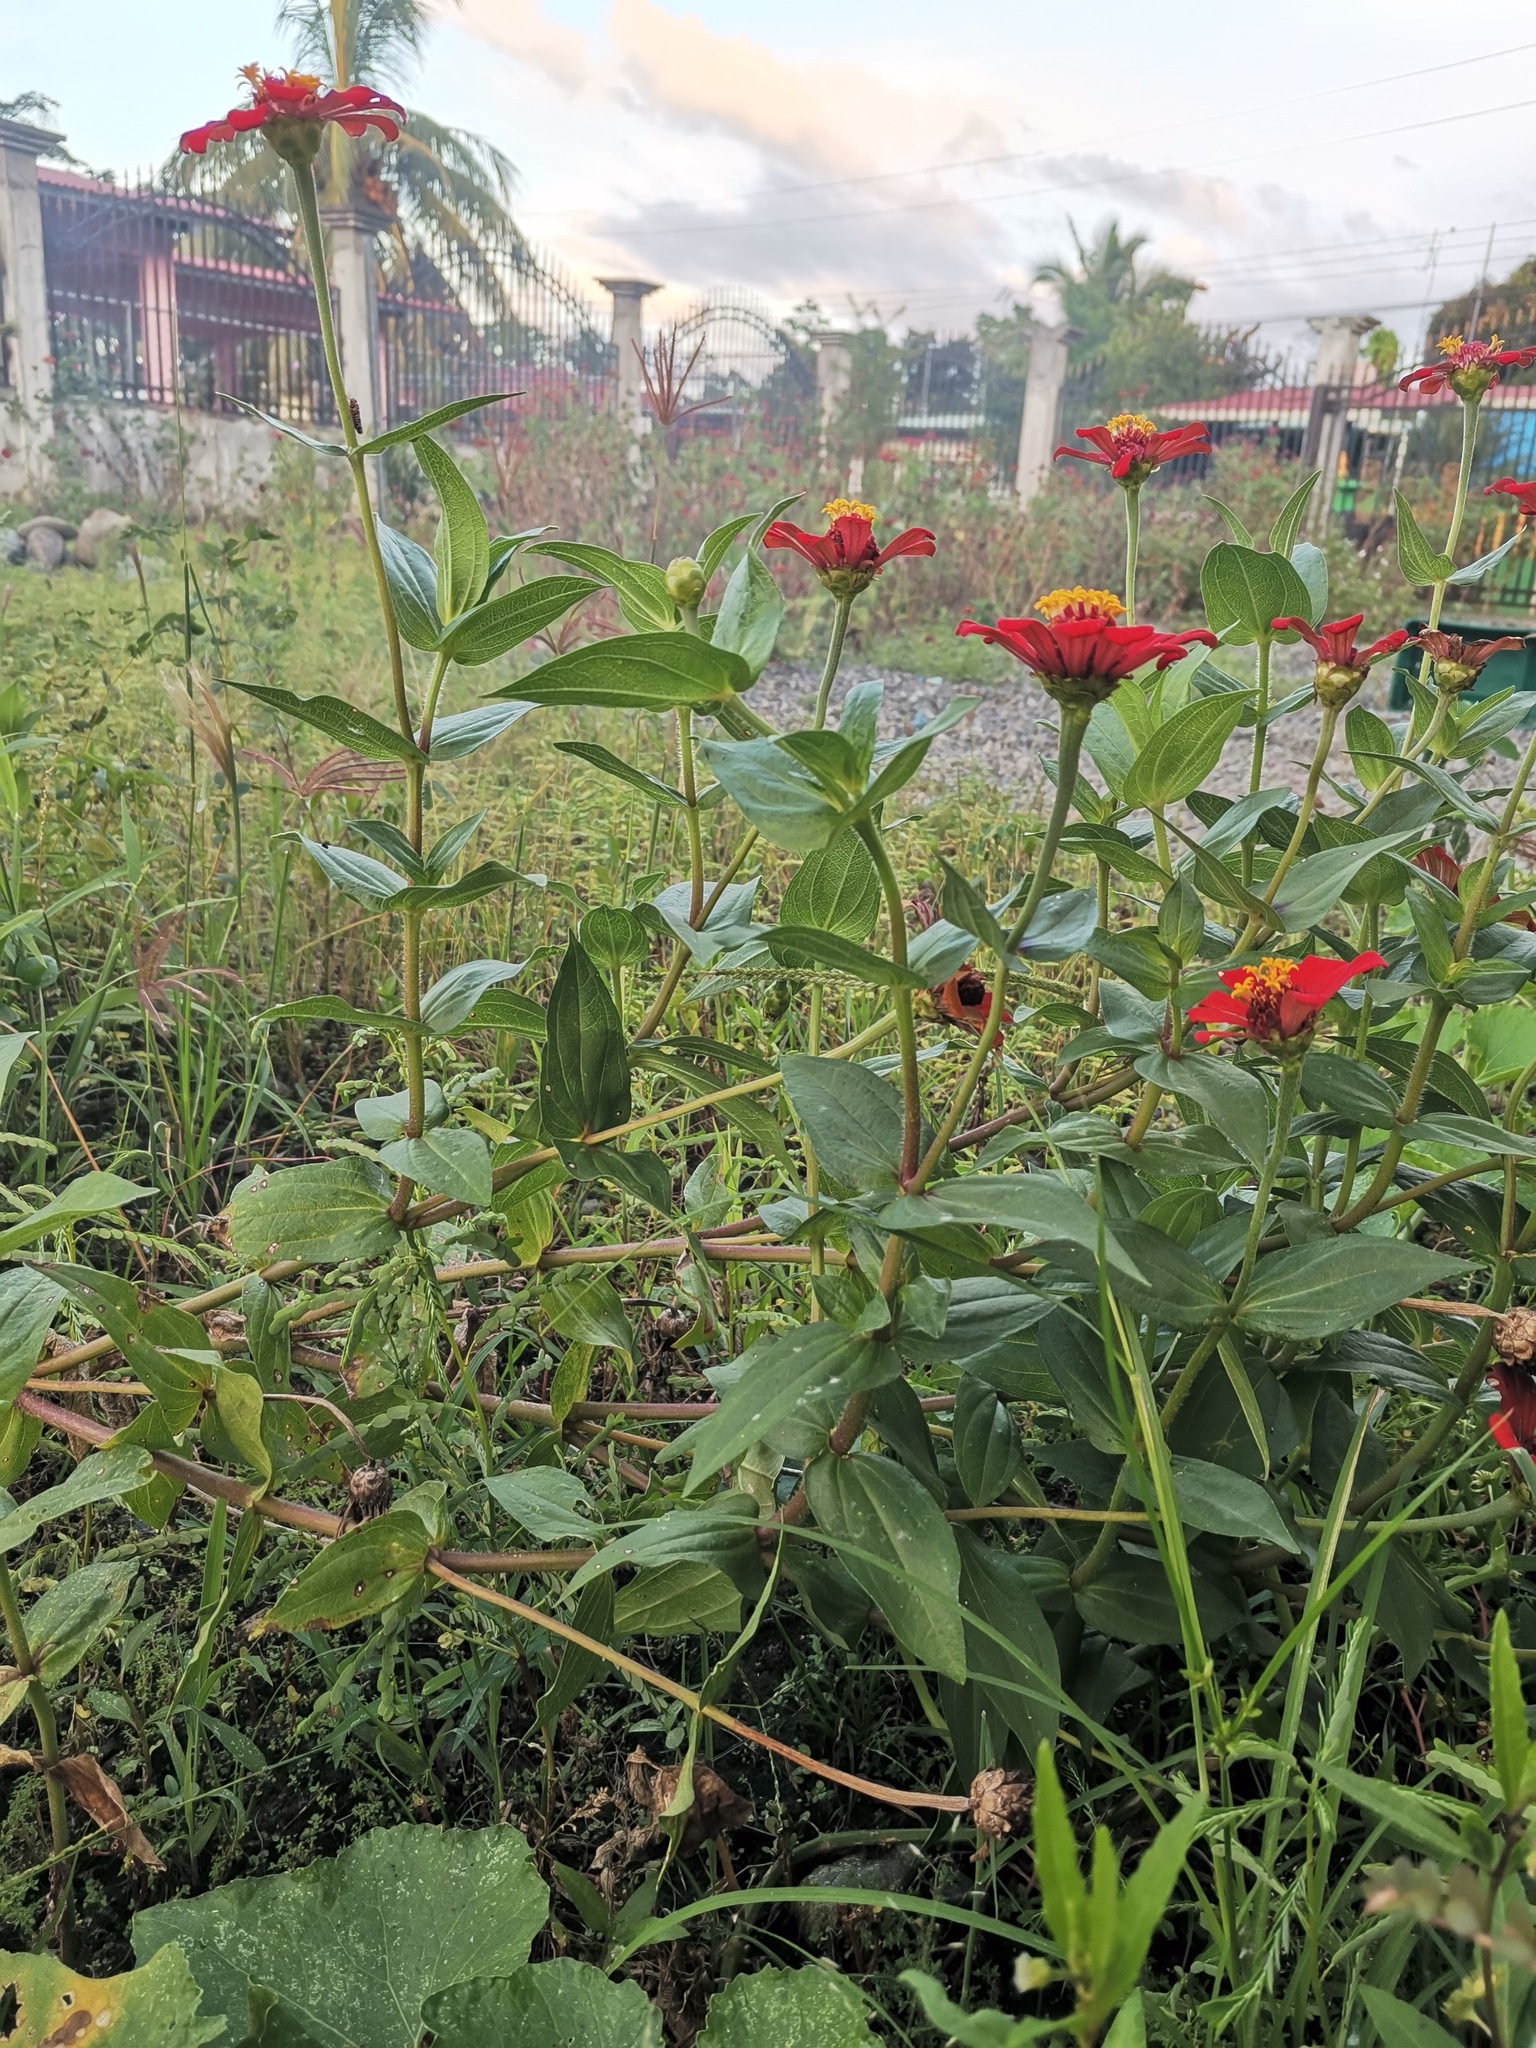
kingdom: Plantae
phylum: Tracheophyta
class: Magnoliopsida
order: Asterales
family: Asteraceae
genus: Zinnia
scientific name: Zinnia elegans
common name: Youth-and-age
